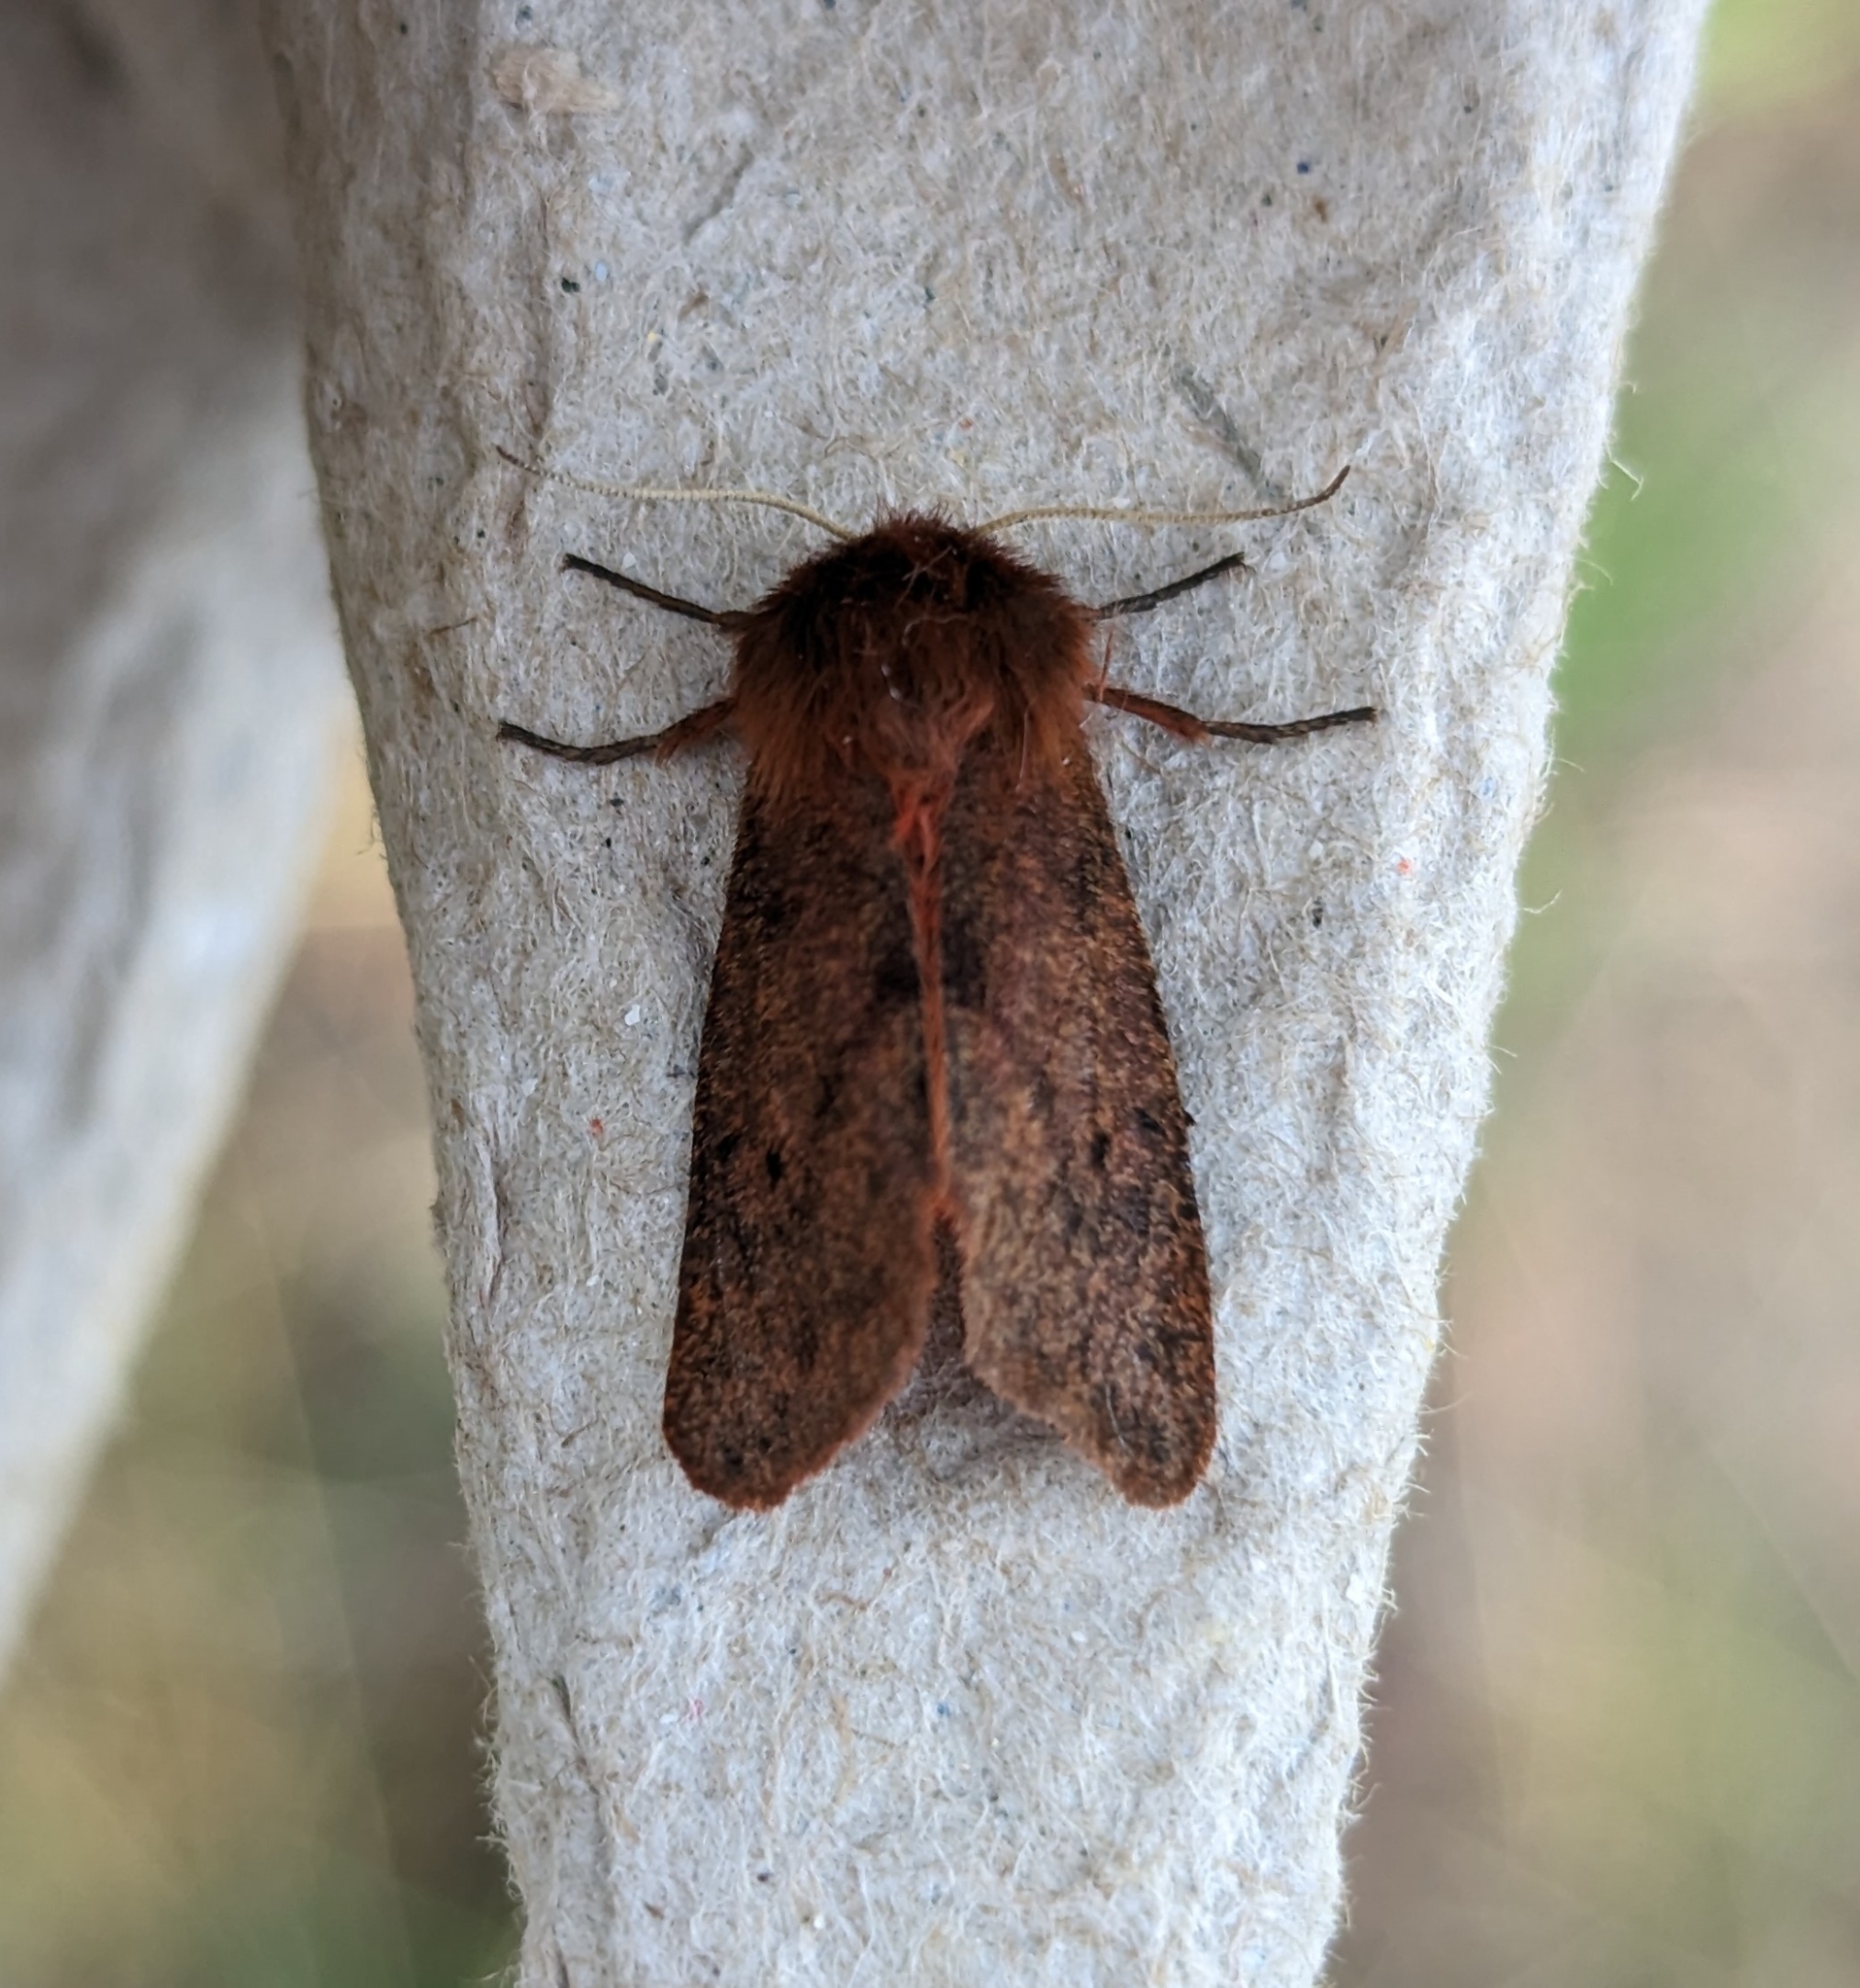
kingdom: Animalia
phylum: Arthropoda
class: Insecta
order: Lepidoptera
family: Erebidae
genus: Phragmatobia
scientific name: Phragmatobia assimilans
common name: Large ruby tiger moth
